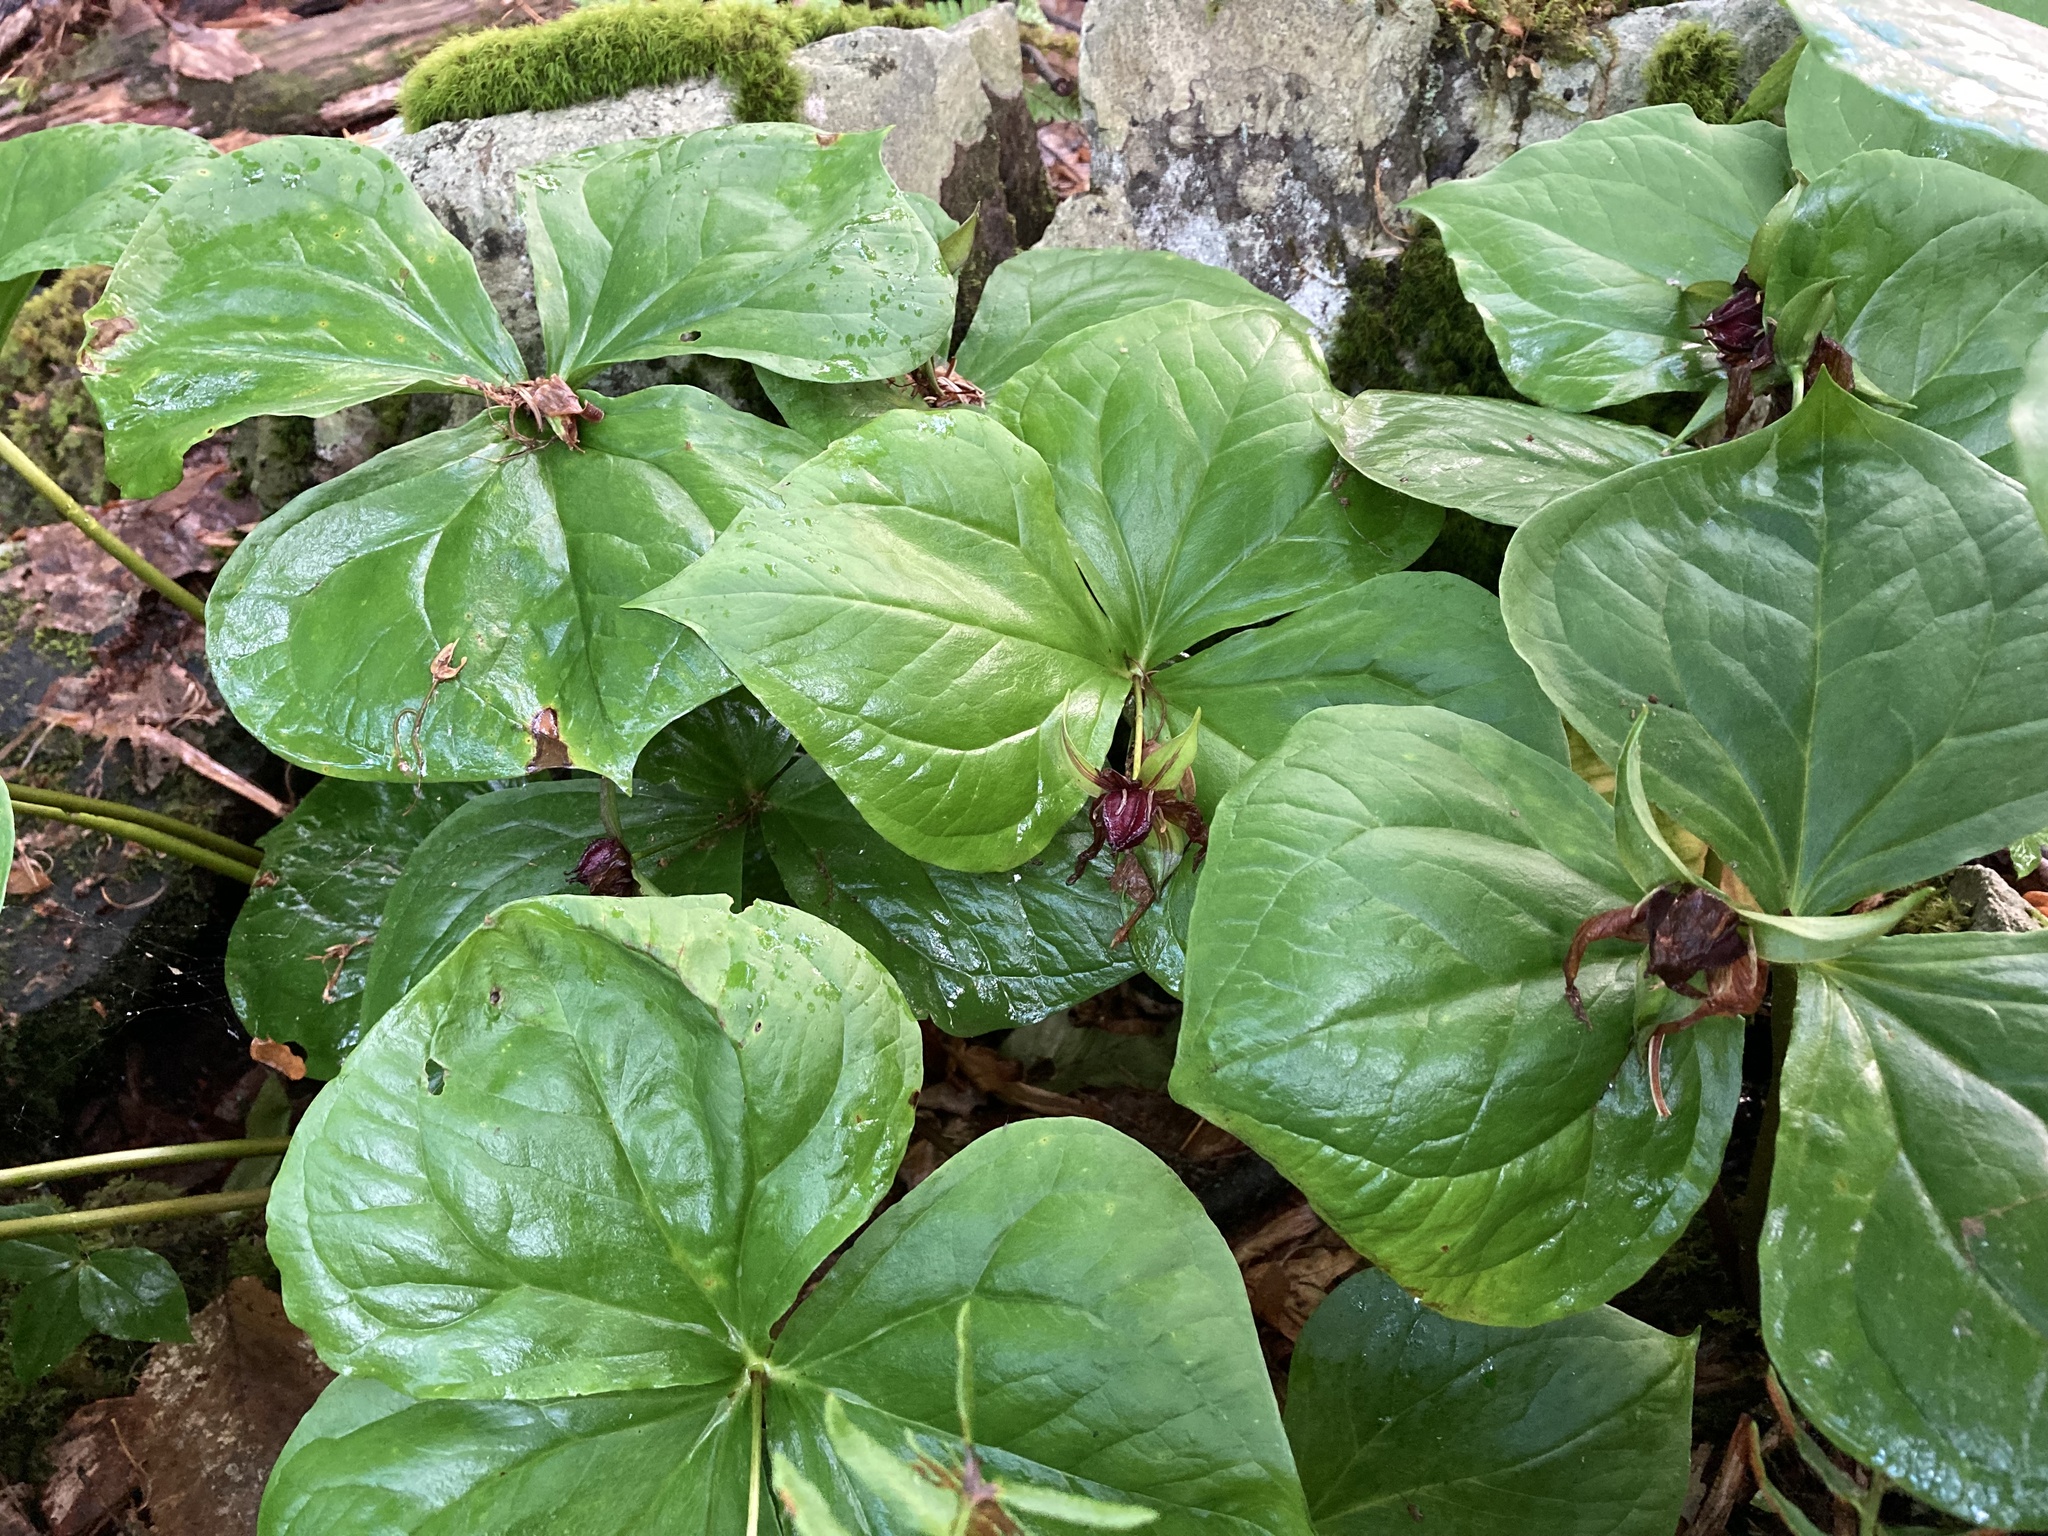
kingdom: Plantae
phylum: Tracheophyta
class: Liliopsida
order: Liliales
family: Melanthiaceae
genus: Trillium
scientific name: Trillium erectum
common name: Purple trillium
